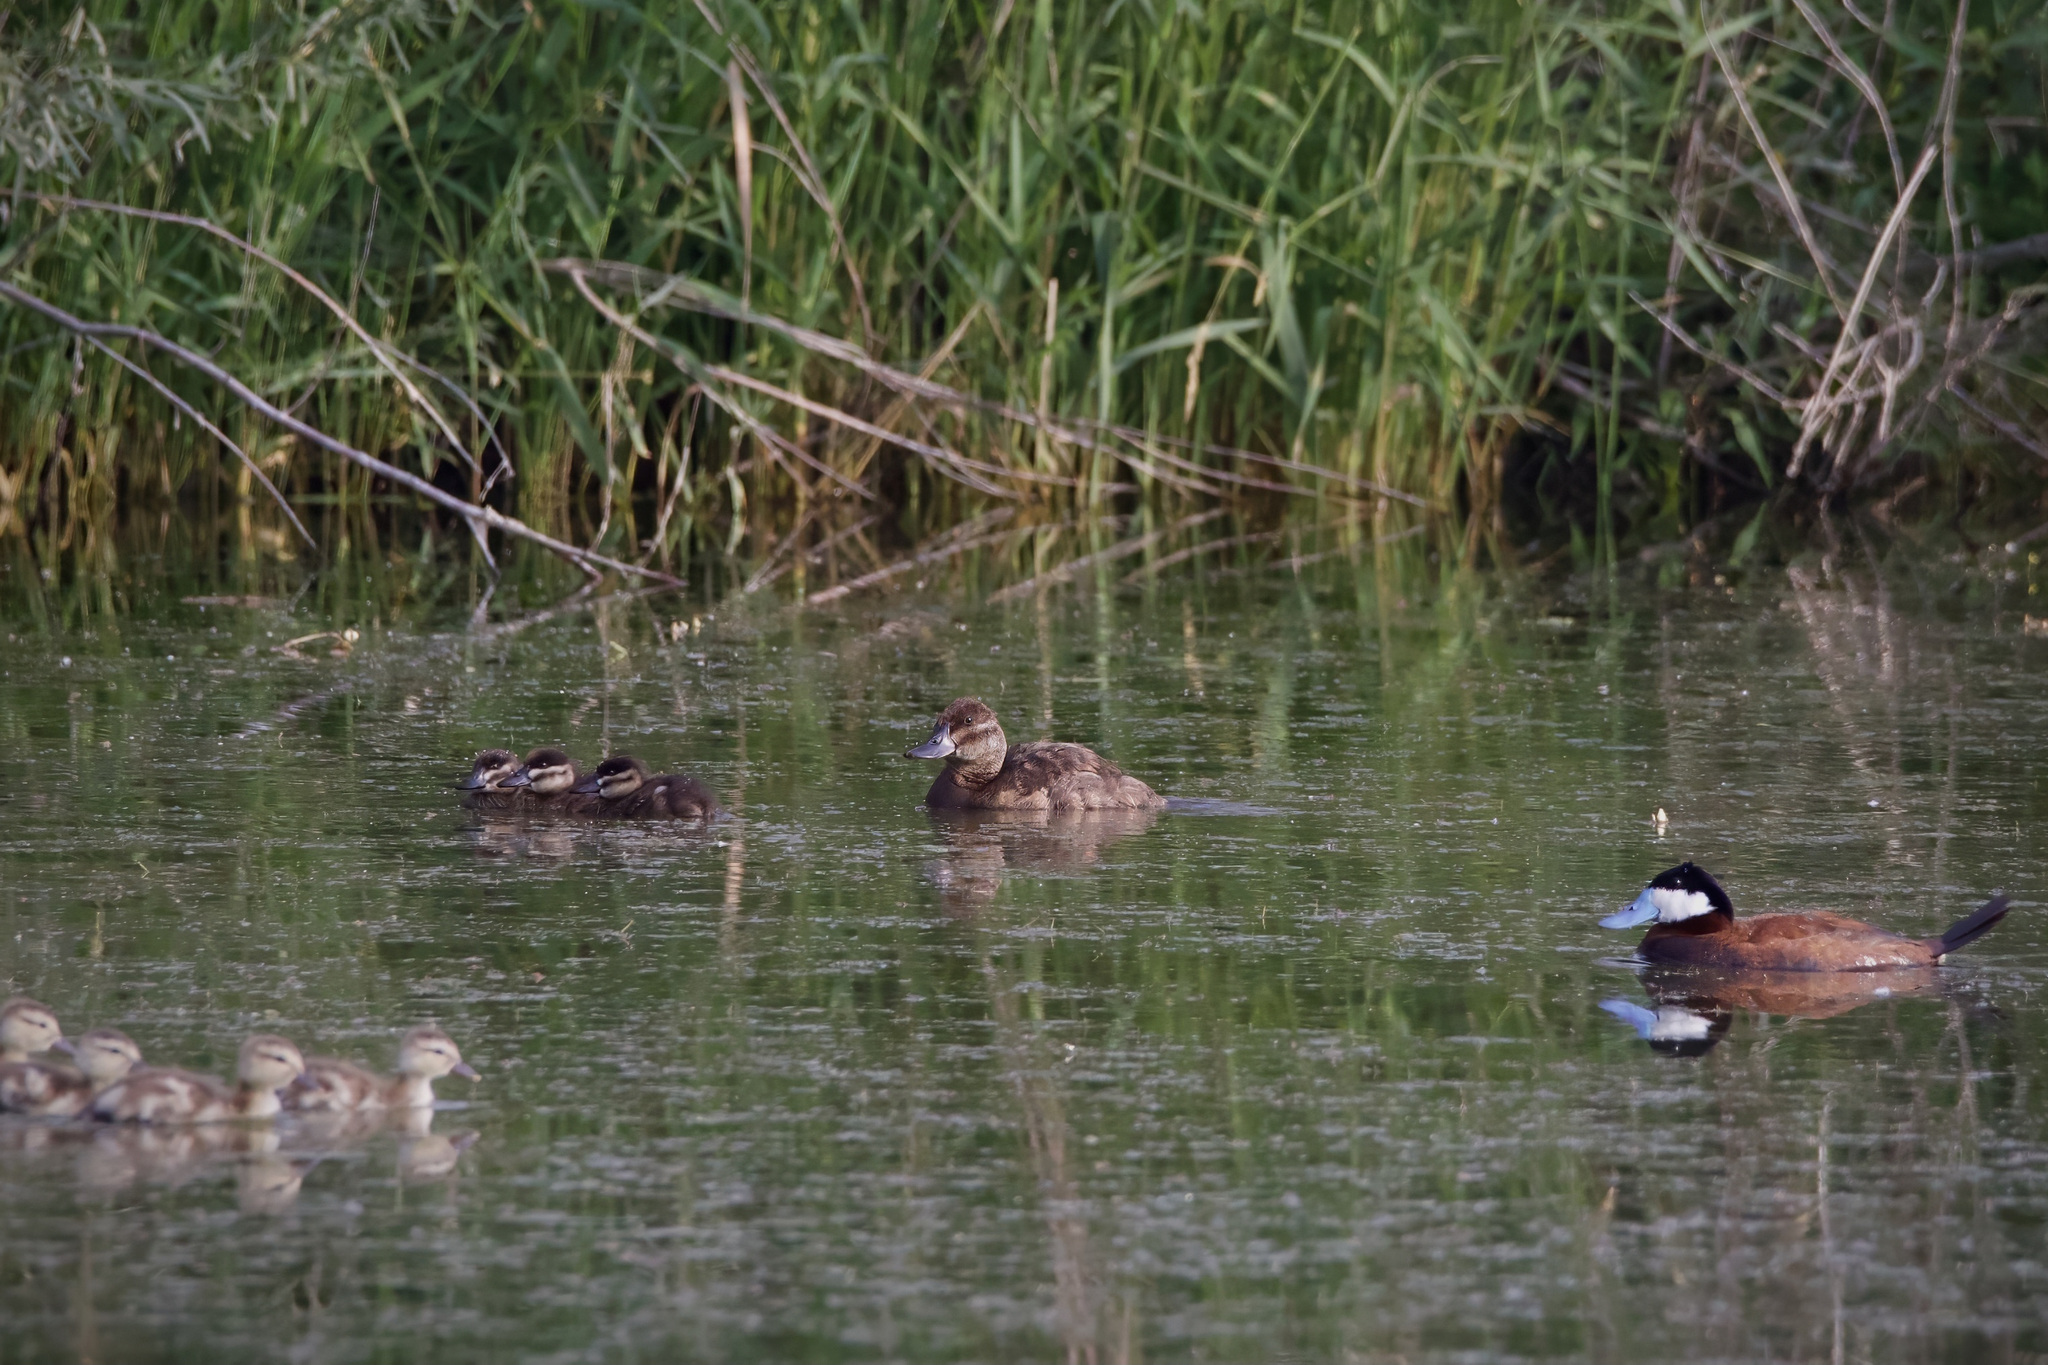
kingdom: Animalia
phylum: Chordata
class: Aves
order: Anseriformes
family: Anatidae
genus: Oxyura
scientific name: Oxyura jamaicensis
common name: Ruddy duck
